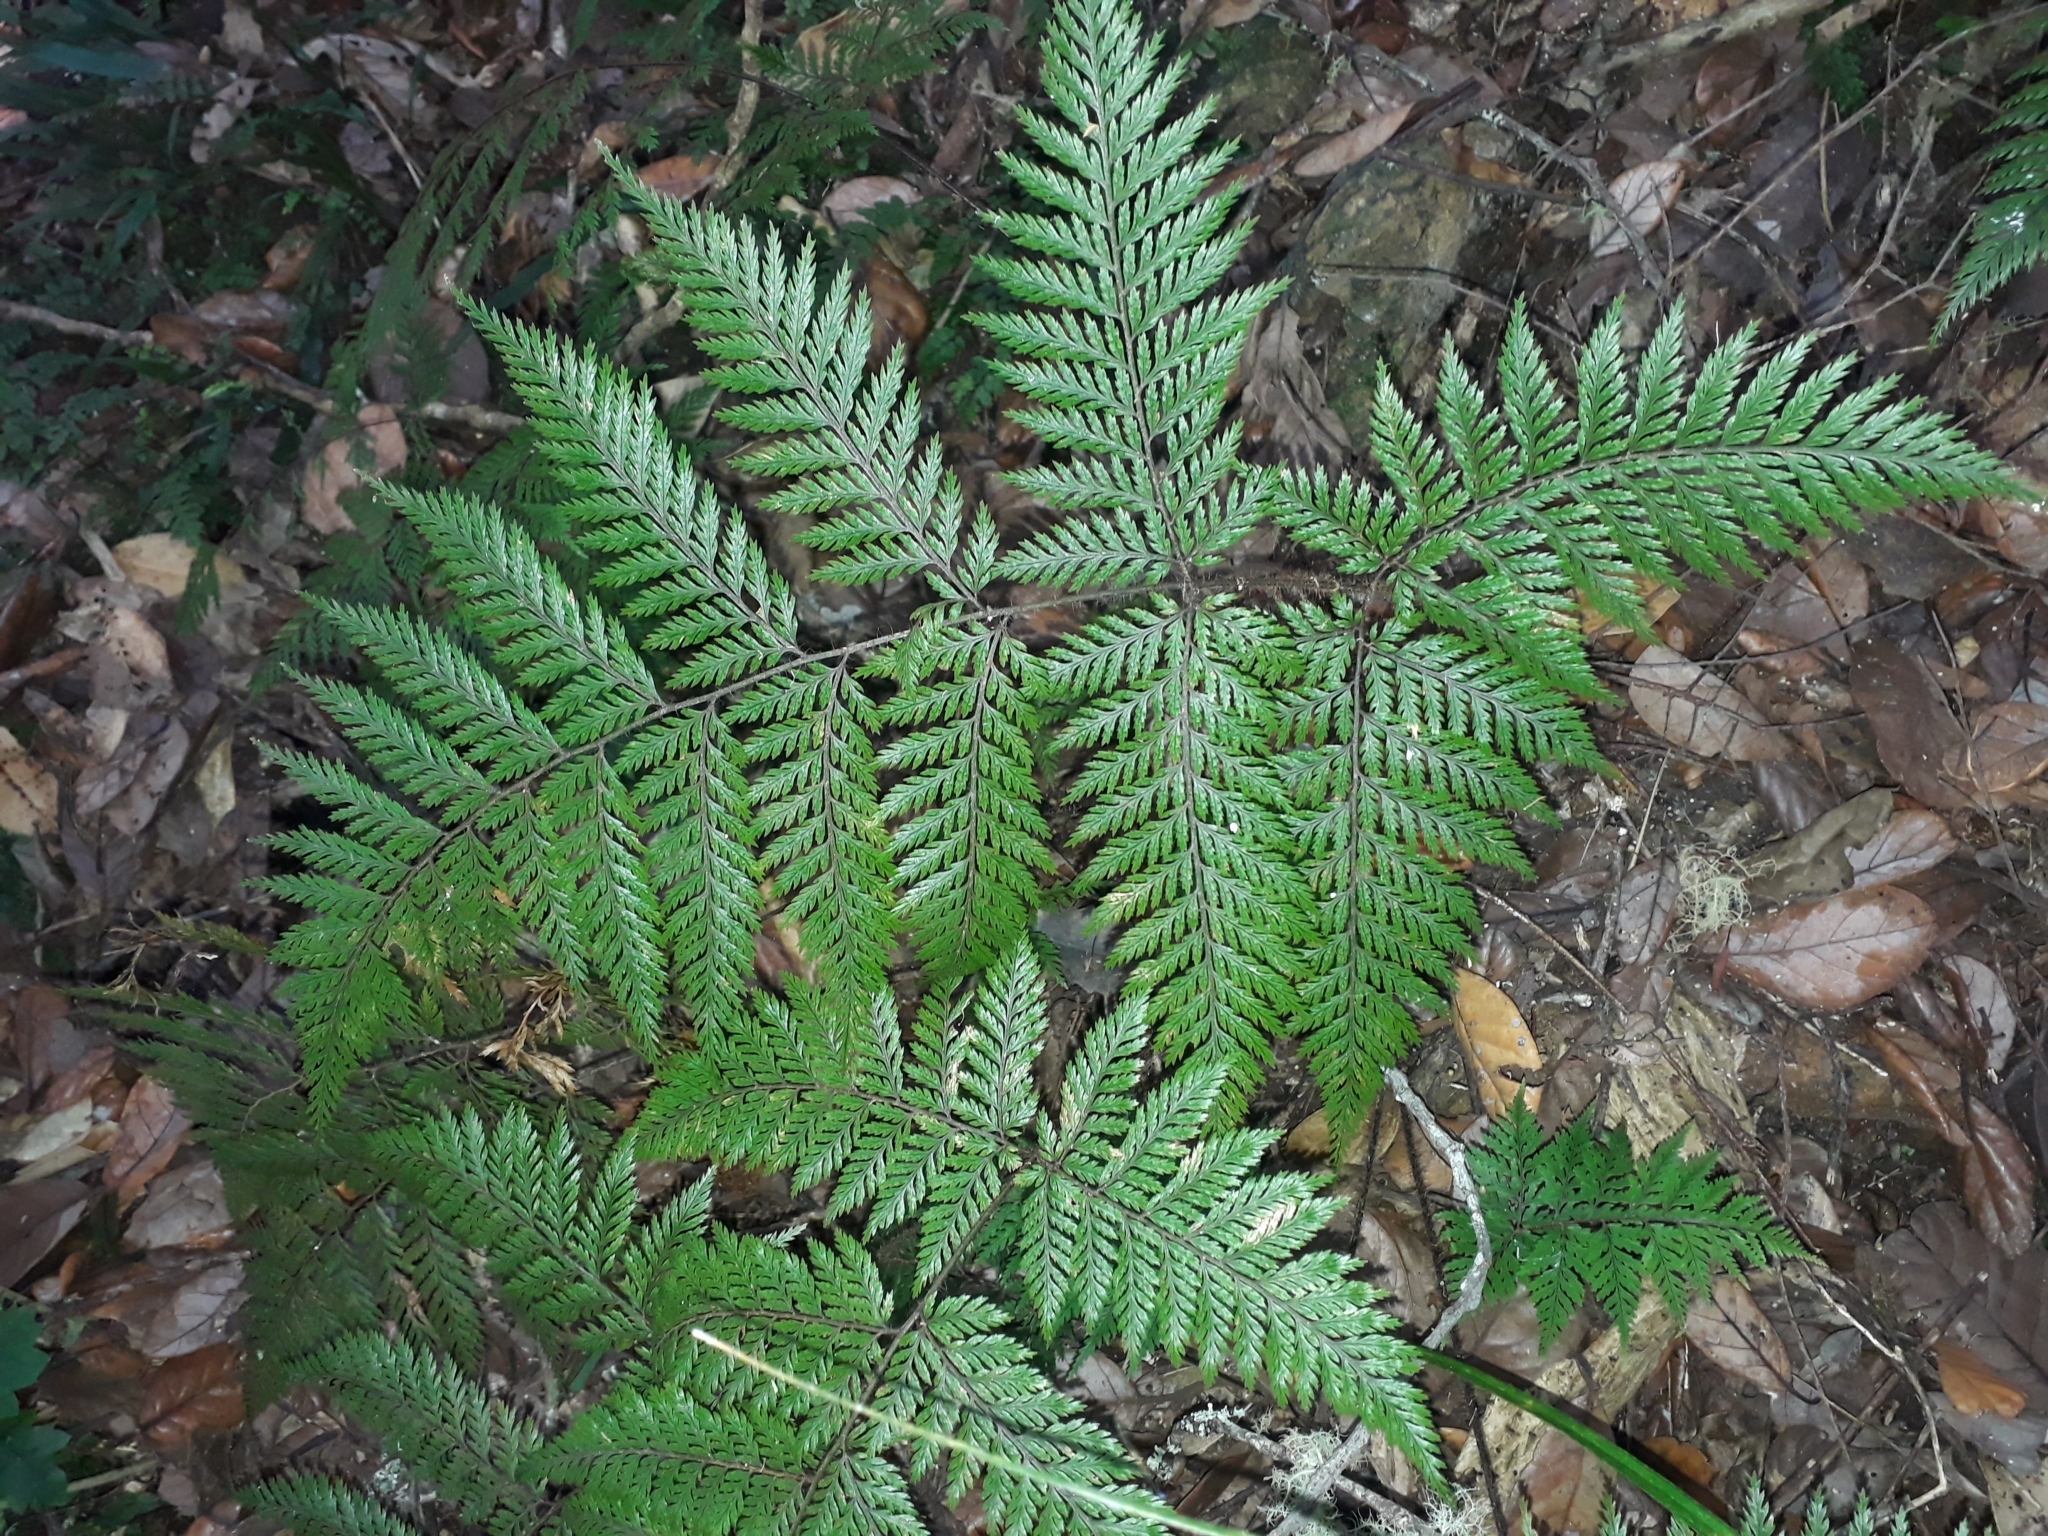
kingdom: Plantae
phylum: Tracheophyta
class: Polypodiopsida
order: Polypodiales
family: Dryopteridaceae
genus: Lastreopsis
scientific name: Lastreopsis hispida
